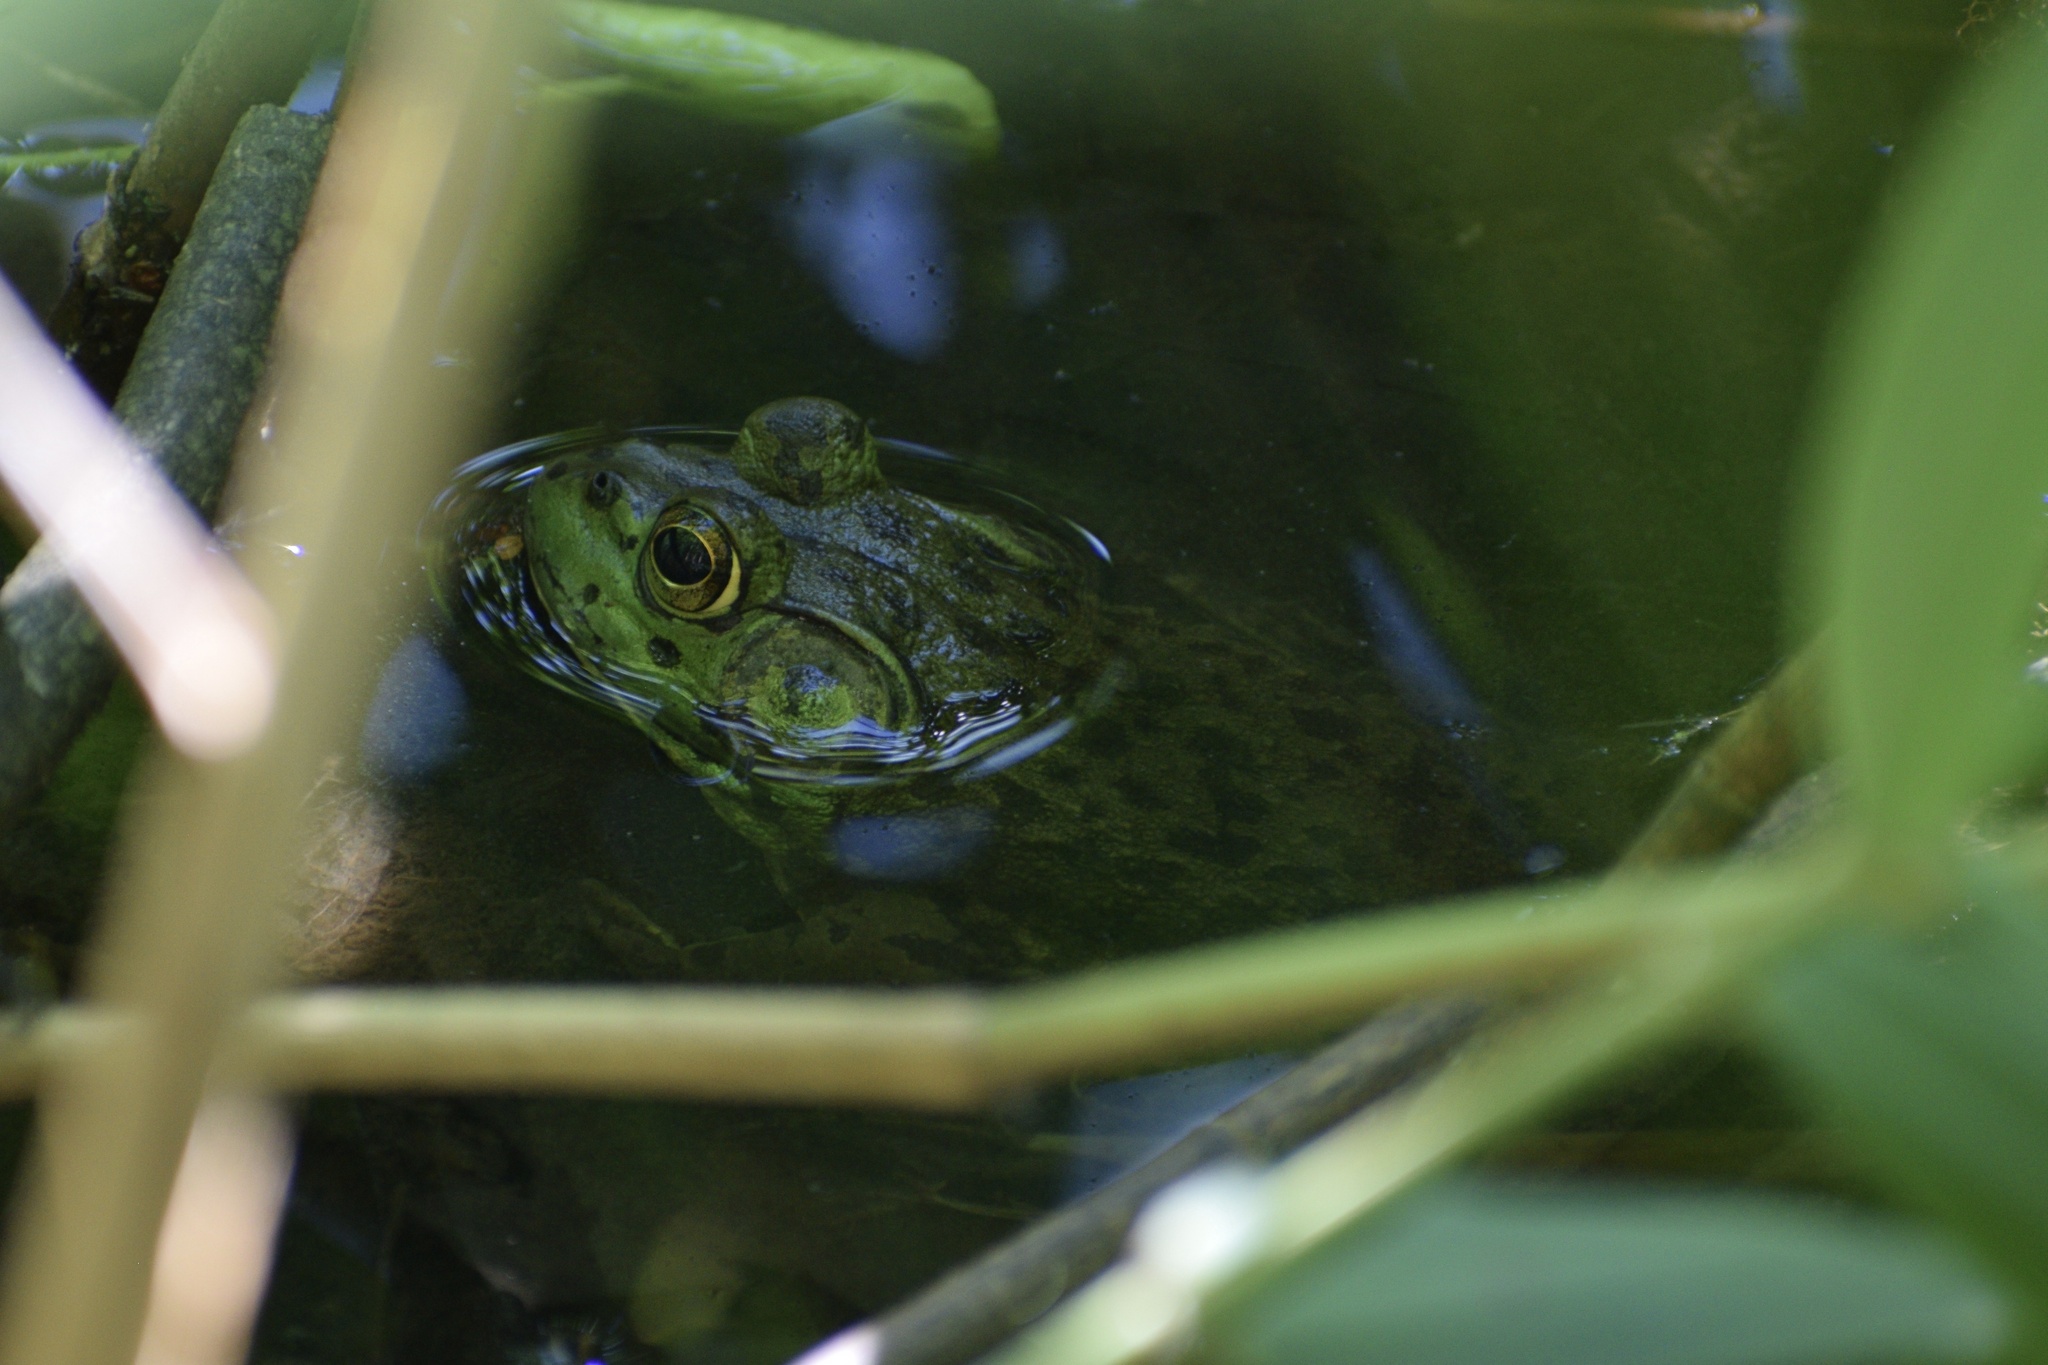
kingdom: Animalia
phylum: Chordata
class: Amphibia
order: Anura
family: Ranidae
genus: Lithobates
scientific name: Lithobates catesbeianus
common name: American bullfrog
